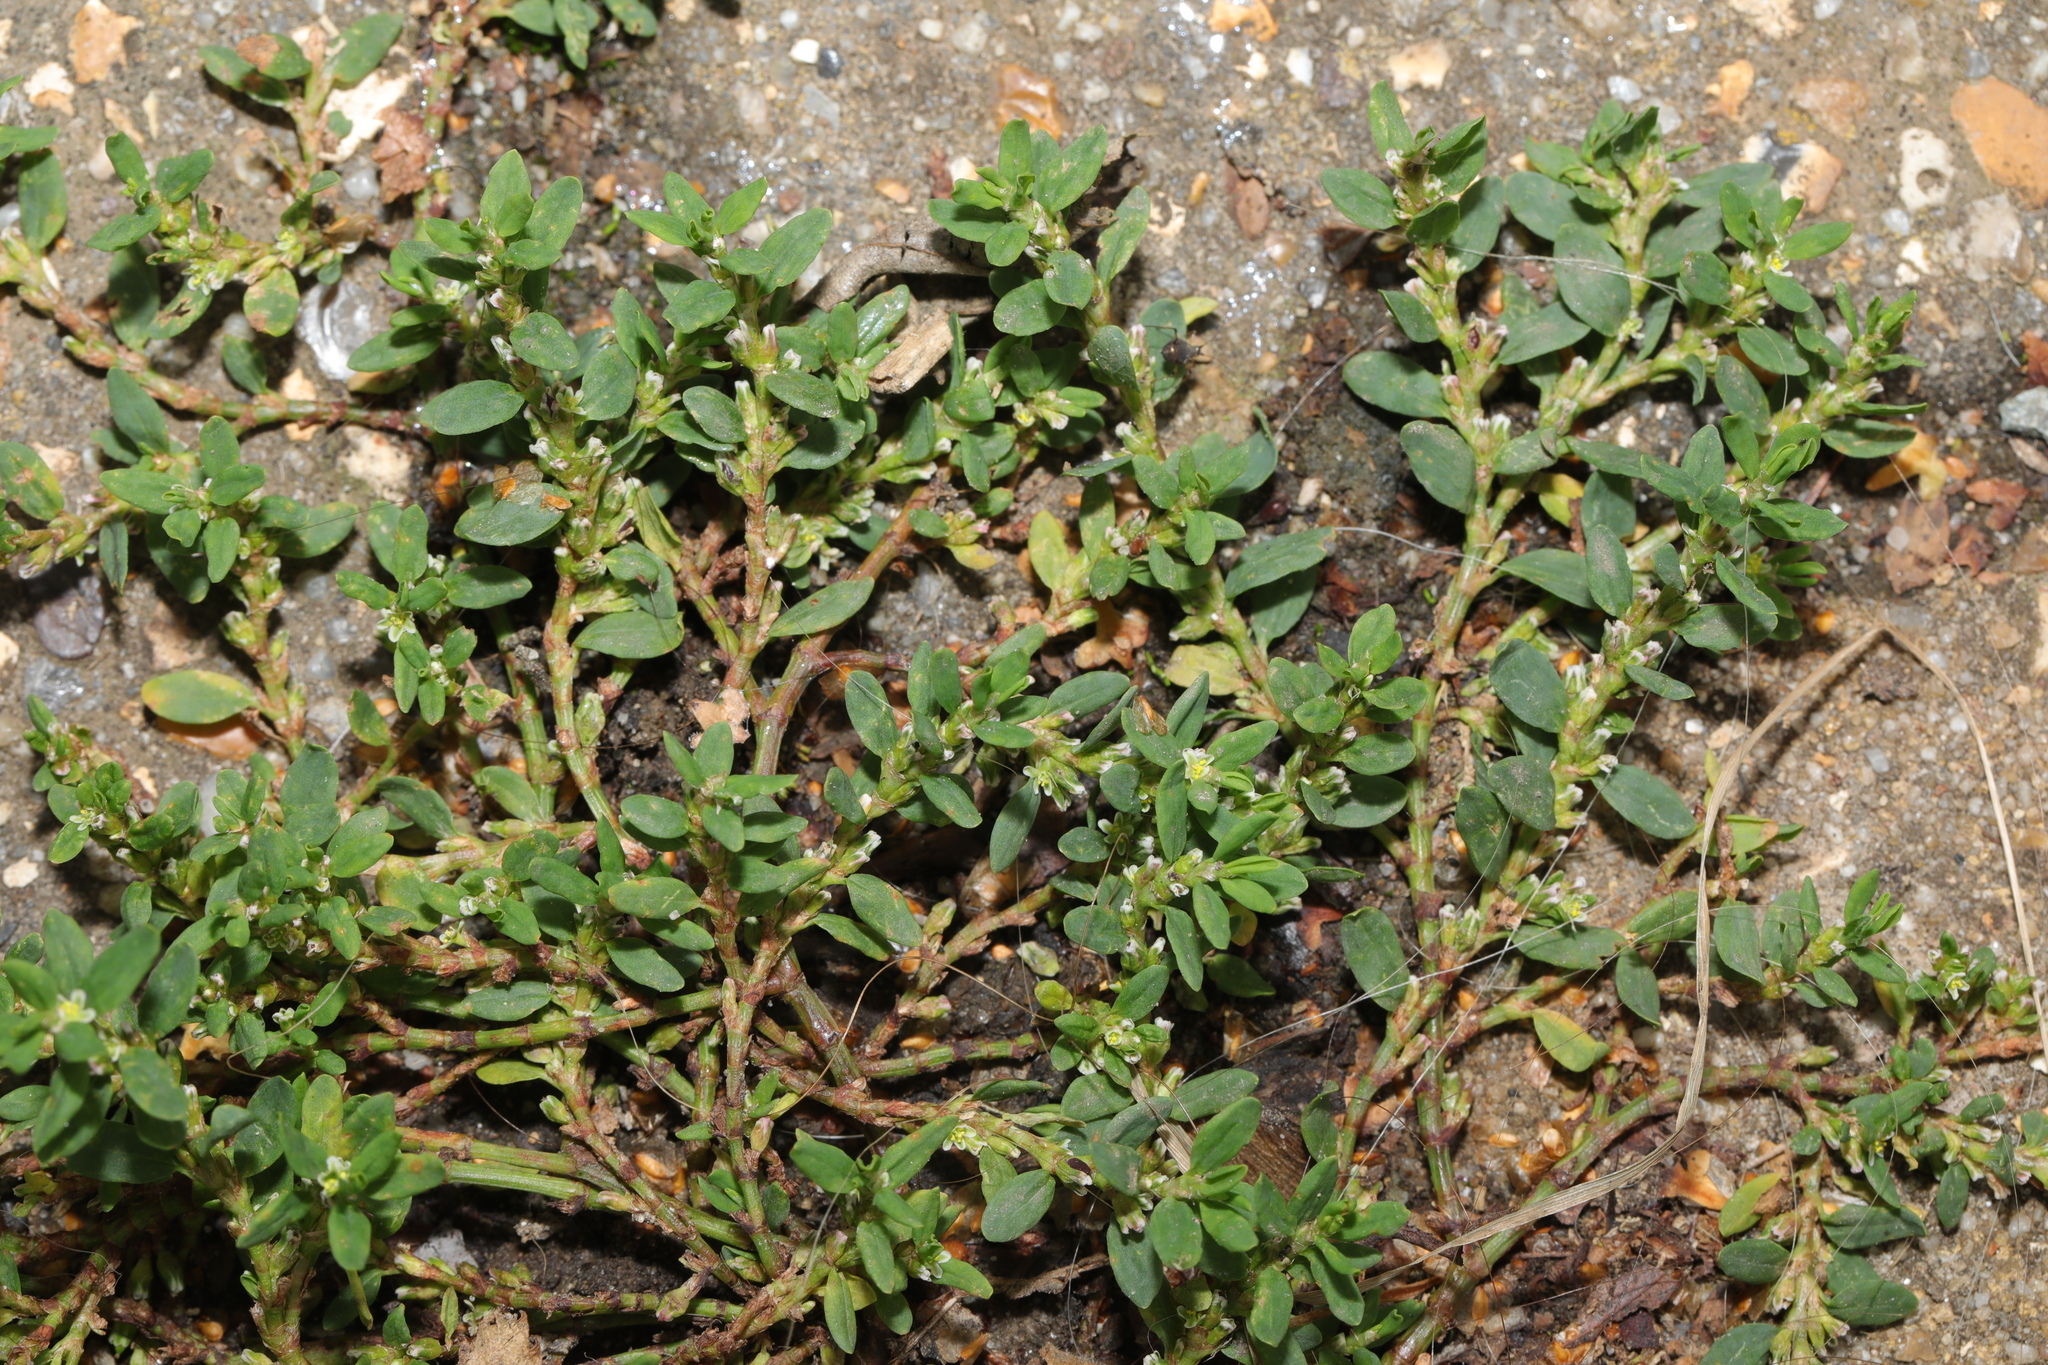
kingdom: Plantae
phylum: Tracheophyta
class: Magnoliopsida
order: Caryophyllales
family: Polygonaceae
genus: Polygonum
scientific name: Polygonum aviculare
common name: Prostrate knotweed
